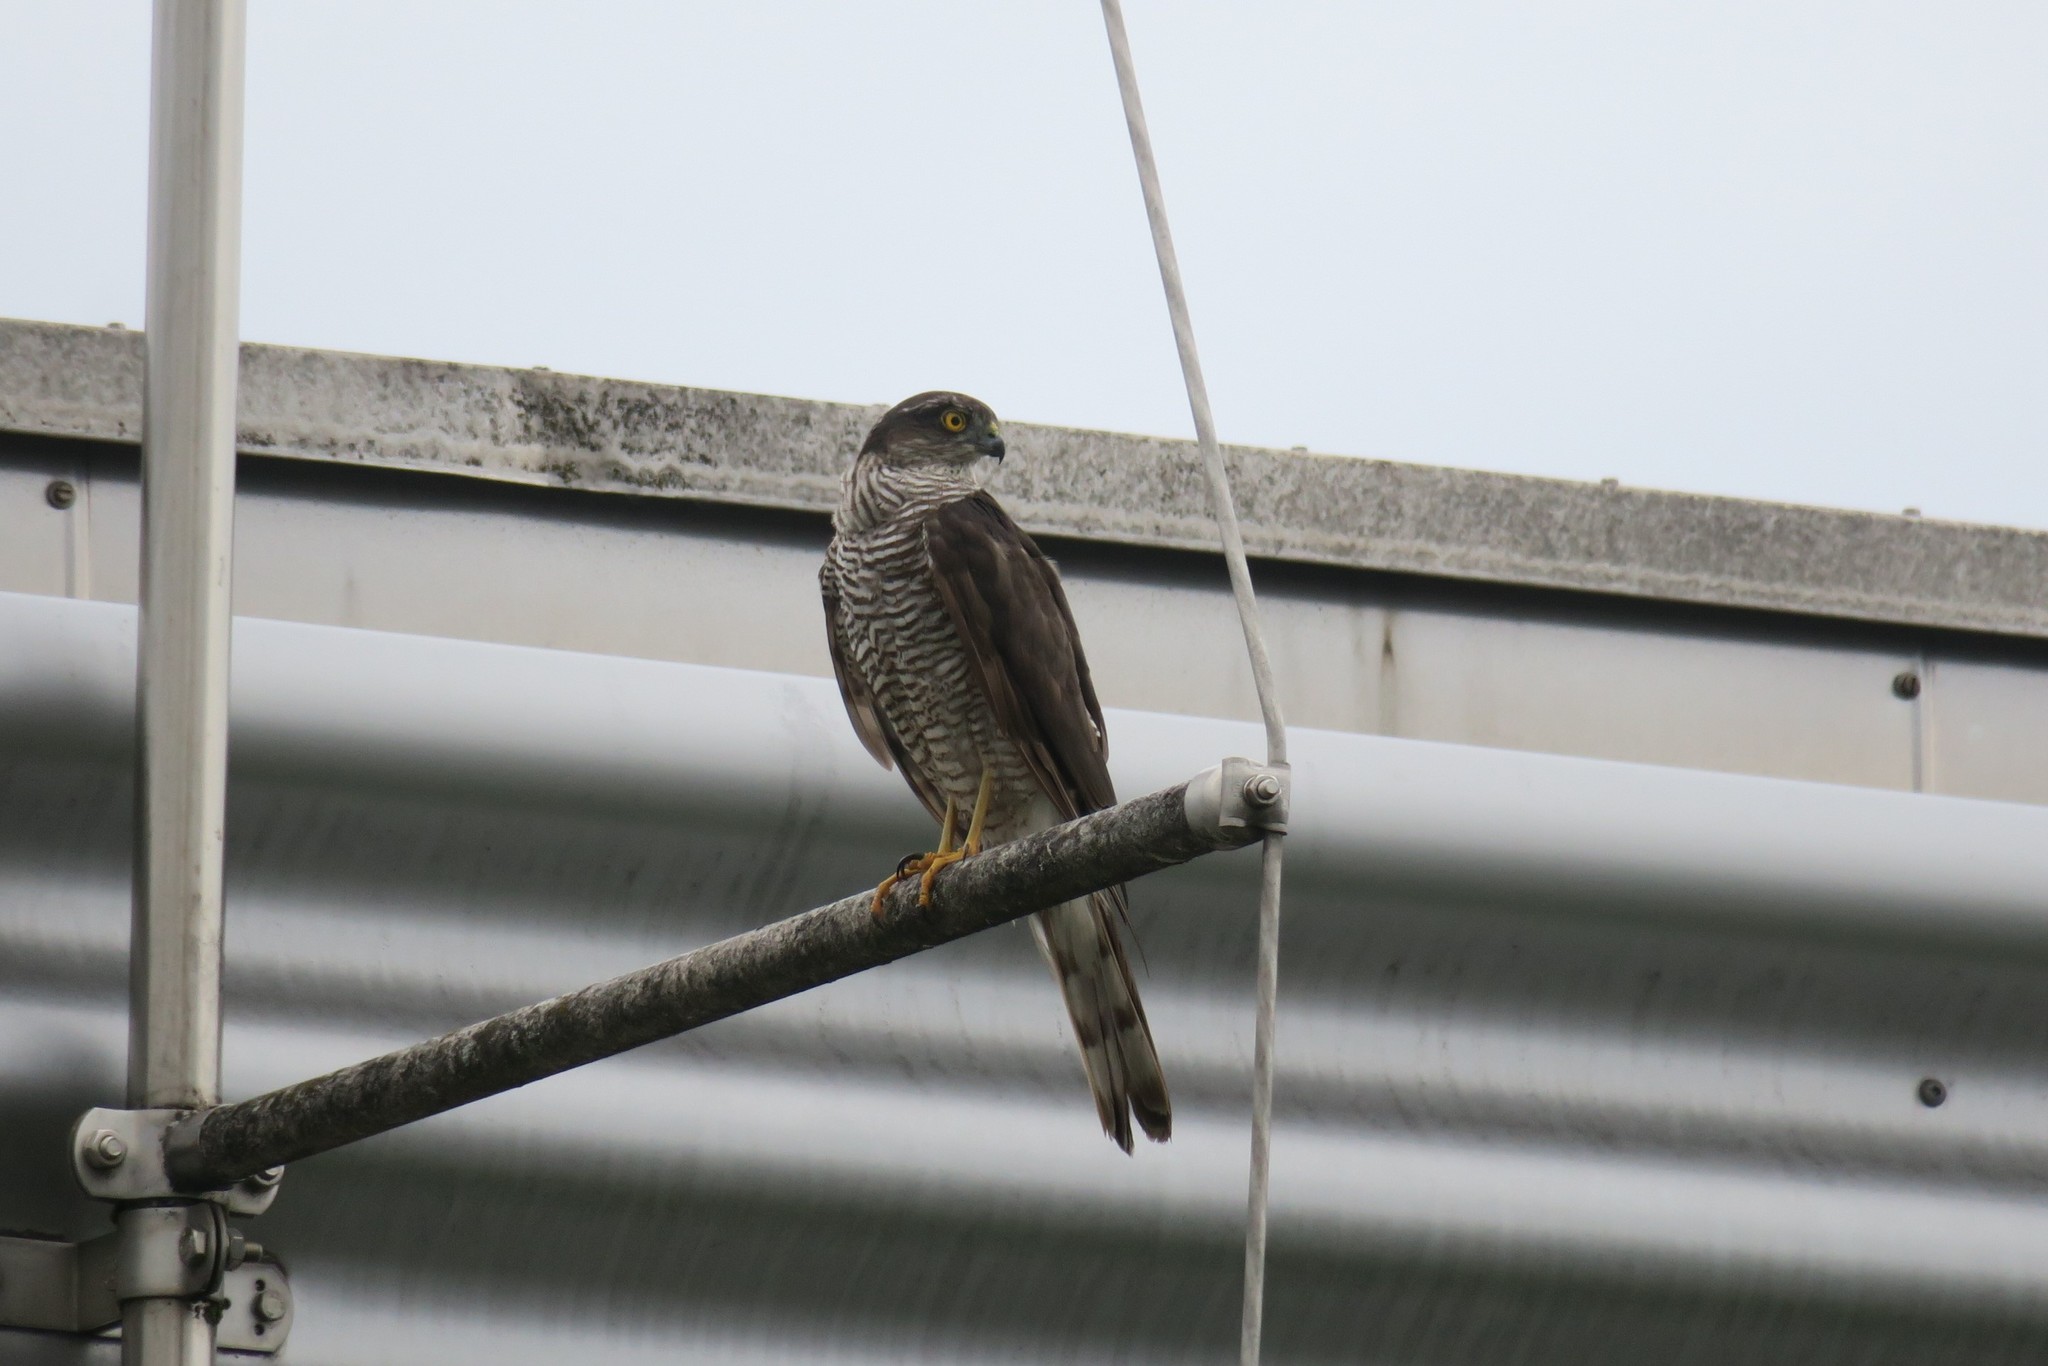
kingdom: Animalia
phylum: Chordata
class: Aves
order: Accipitriformes
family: Accipitridae
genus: Accipiter
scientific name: Accipiter nisus
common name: Eurasian sparrowhawk
